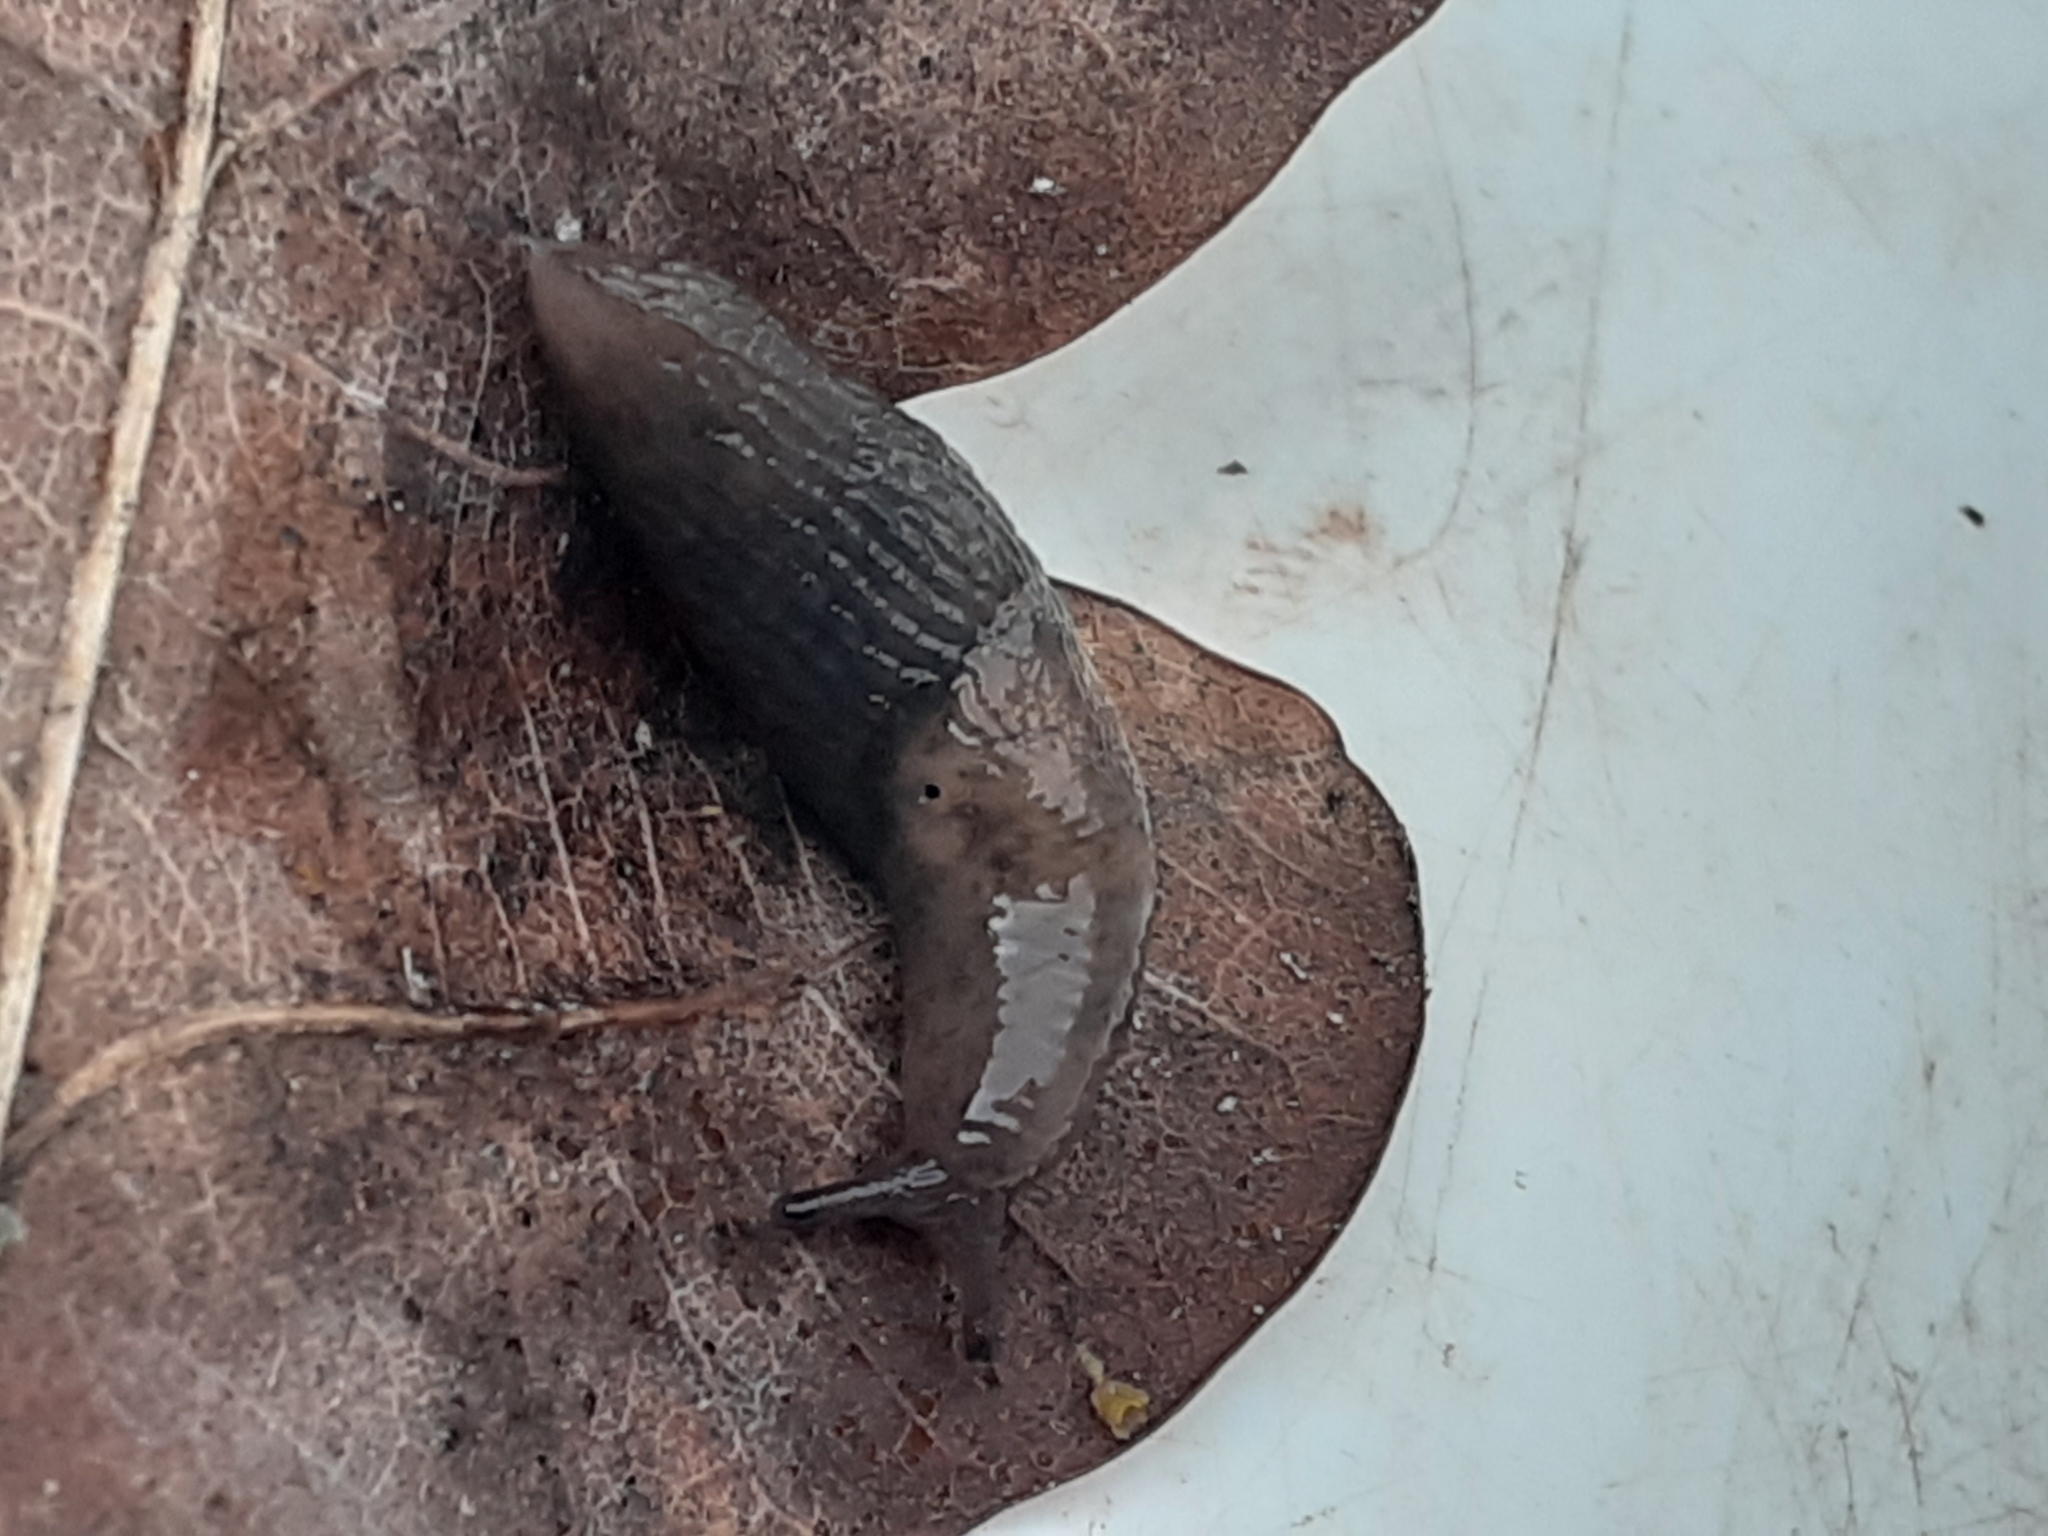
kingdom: Animalia
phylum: Mollusca
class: Gastropoda
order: Stylommatophora
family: Agriolimacidae
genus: Deroceras
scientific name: Deroceras invadens
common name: Caruana's slug
